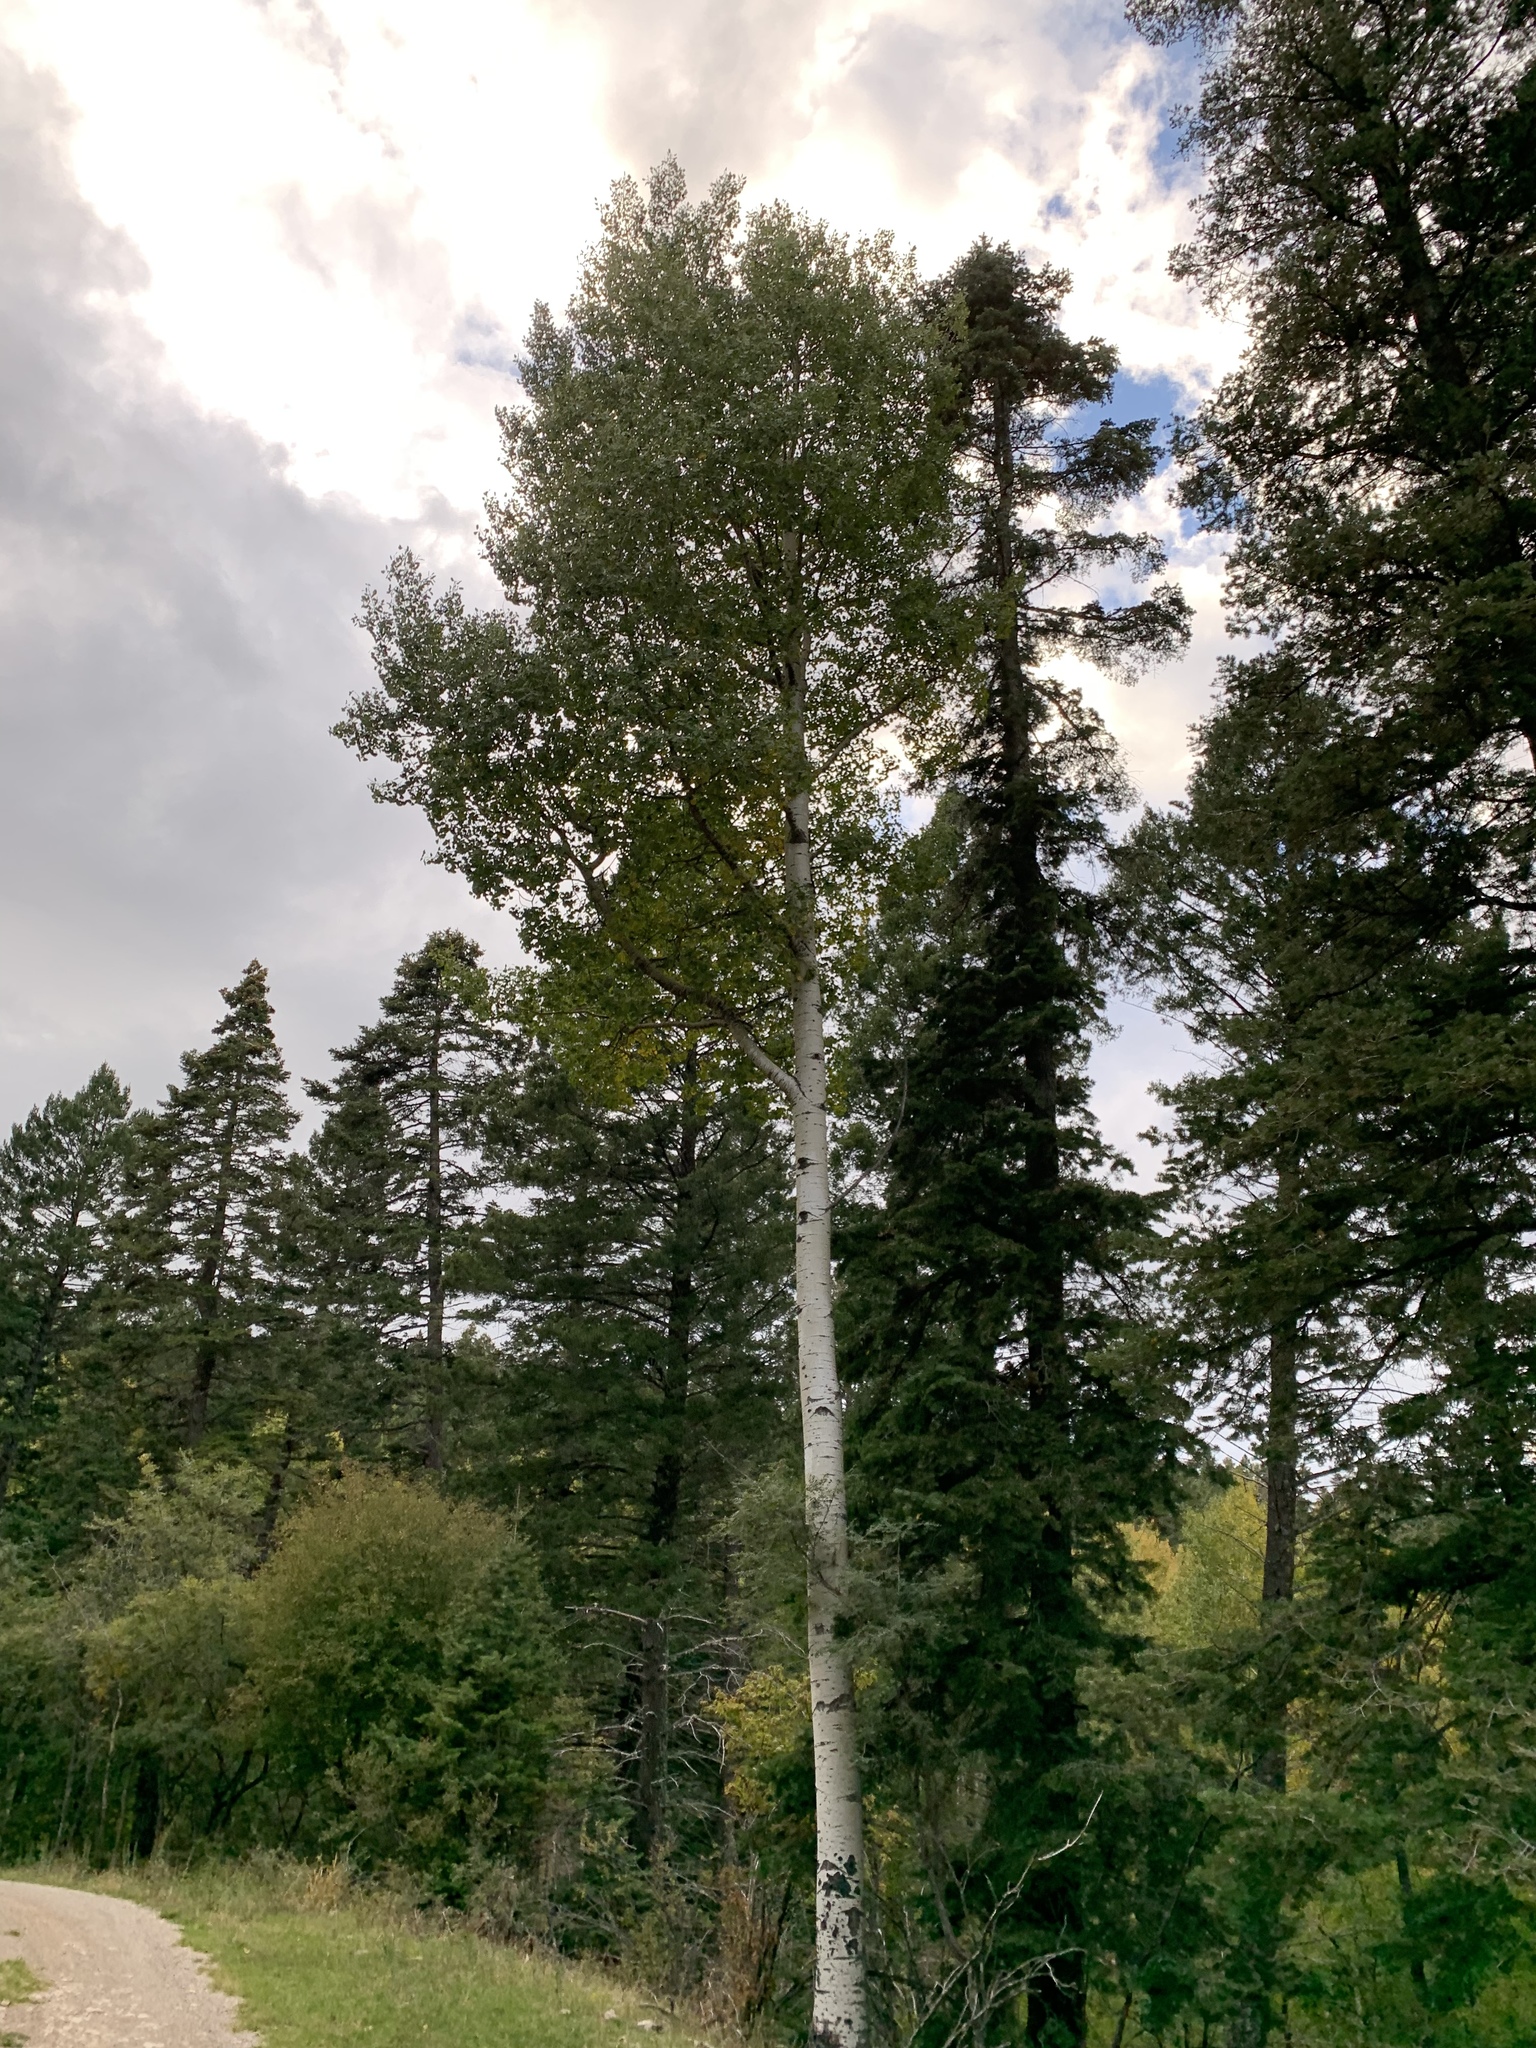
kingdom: Plantae
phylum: Tracheophyta
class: Magnoliopsida
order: Malpighiales
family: Salicaceae
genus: Populus
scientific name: Populus tremuloides
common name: Quaking aspen
